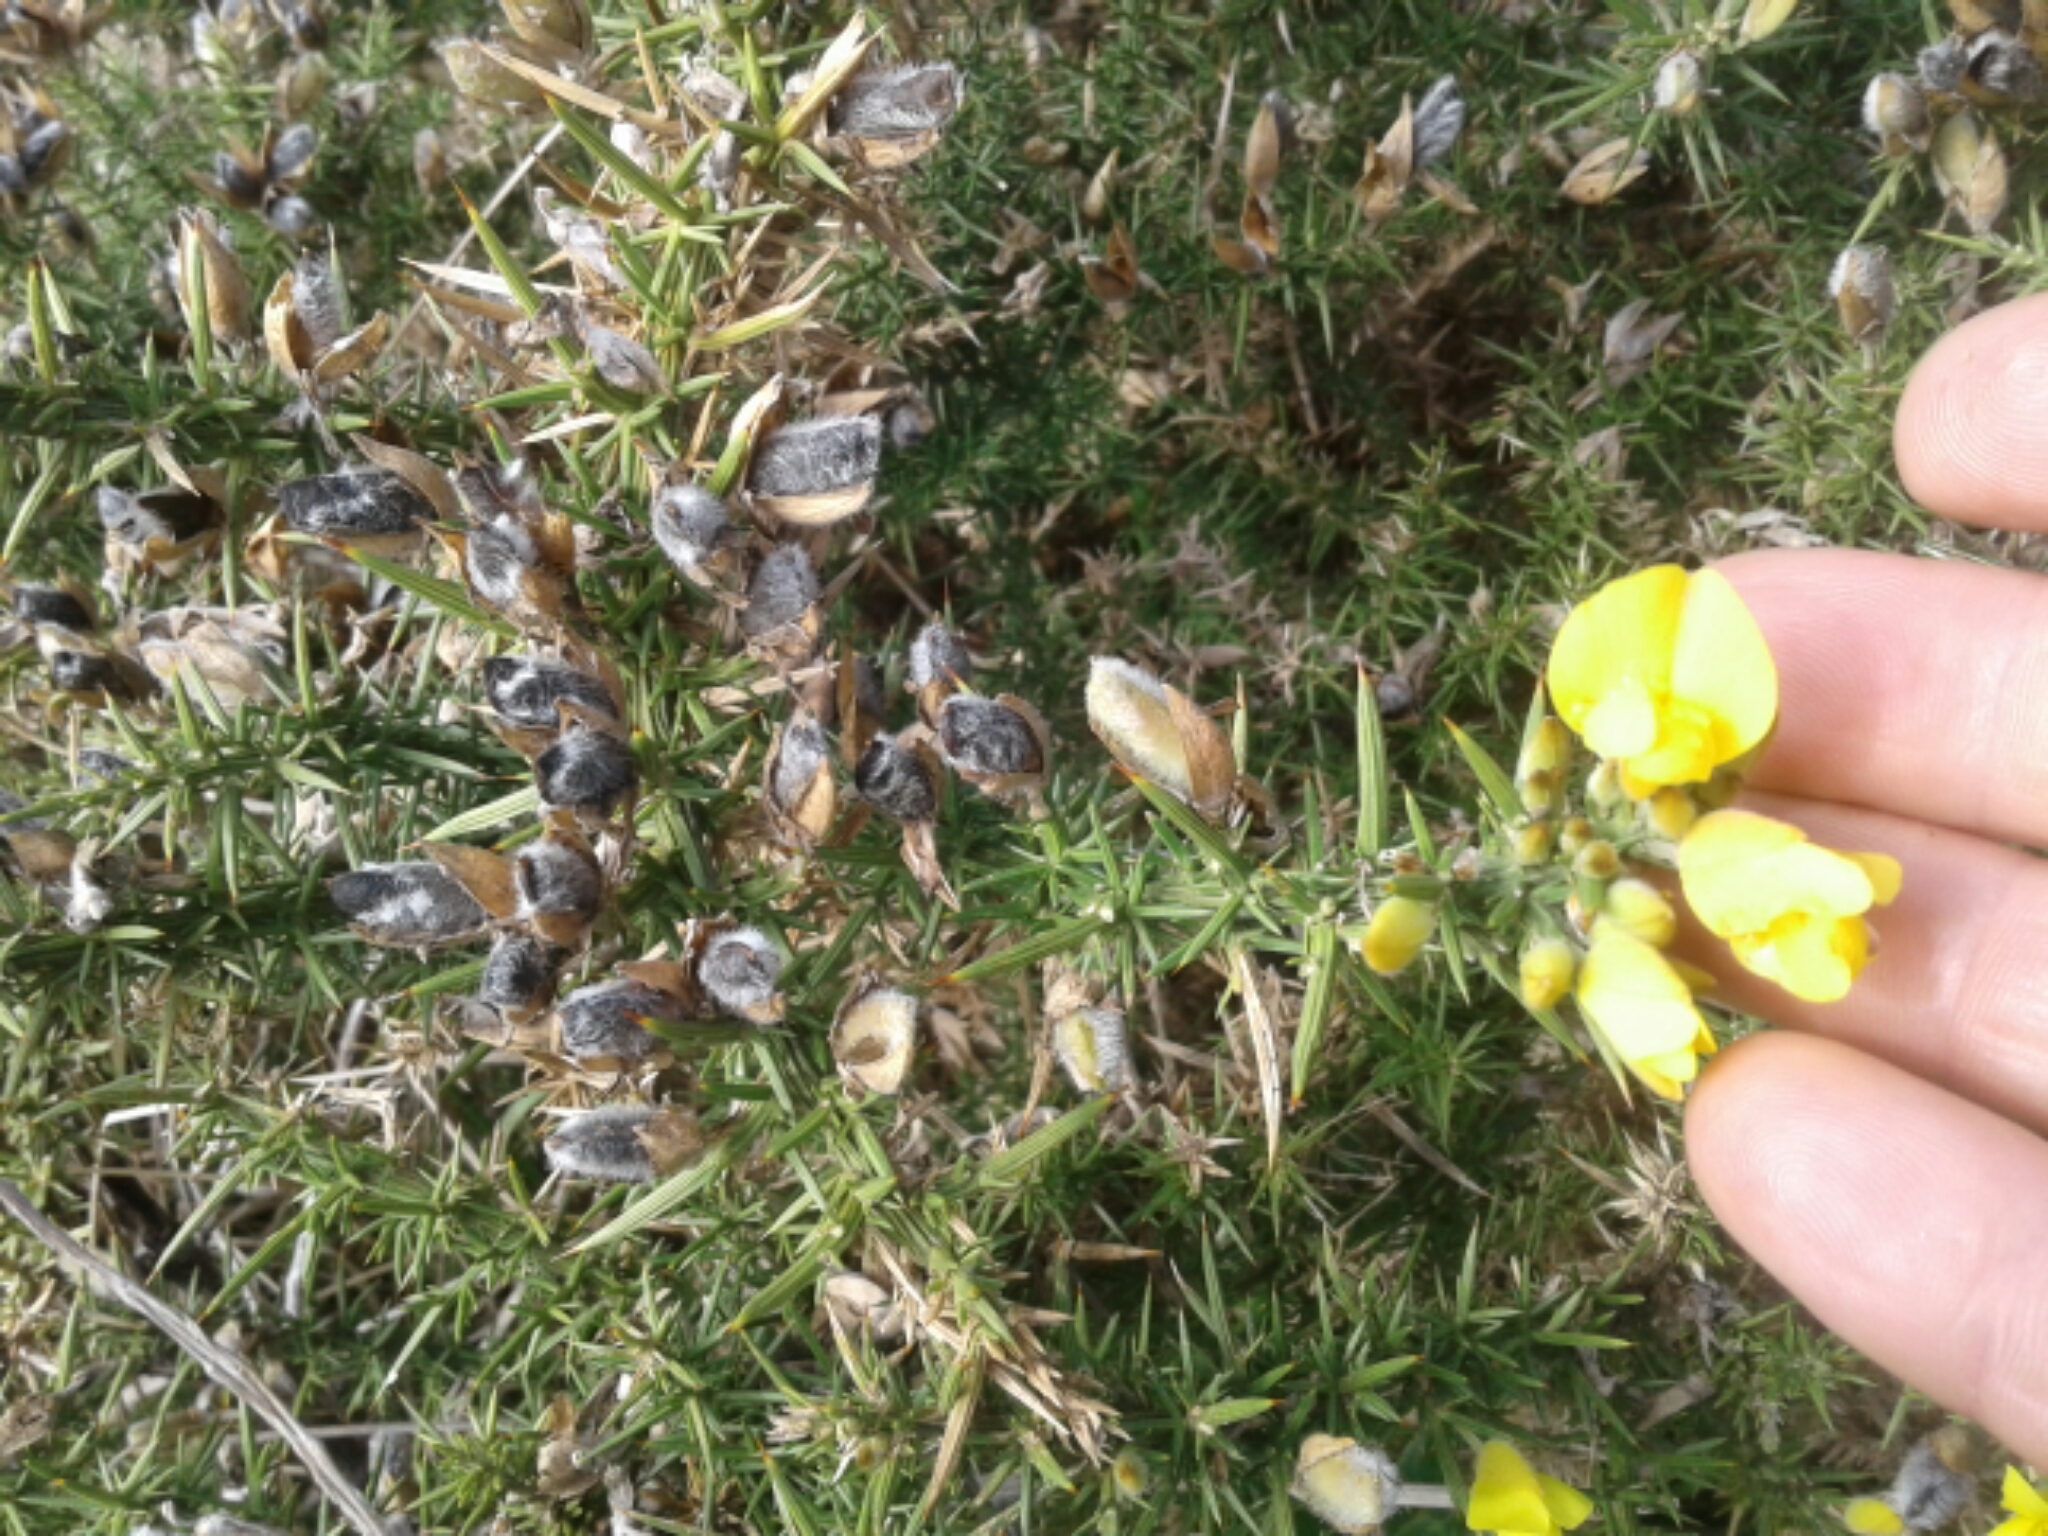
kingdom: Plantae
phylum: Tracheophyta
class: Magnoliopsida
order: Fabales
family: Fabaceae
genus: Ulex
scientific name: Ulex europaeus
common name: Common gorse
